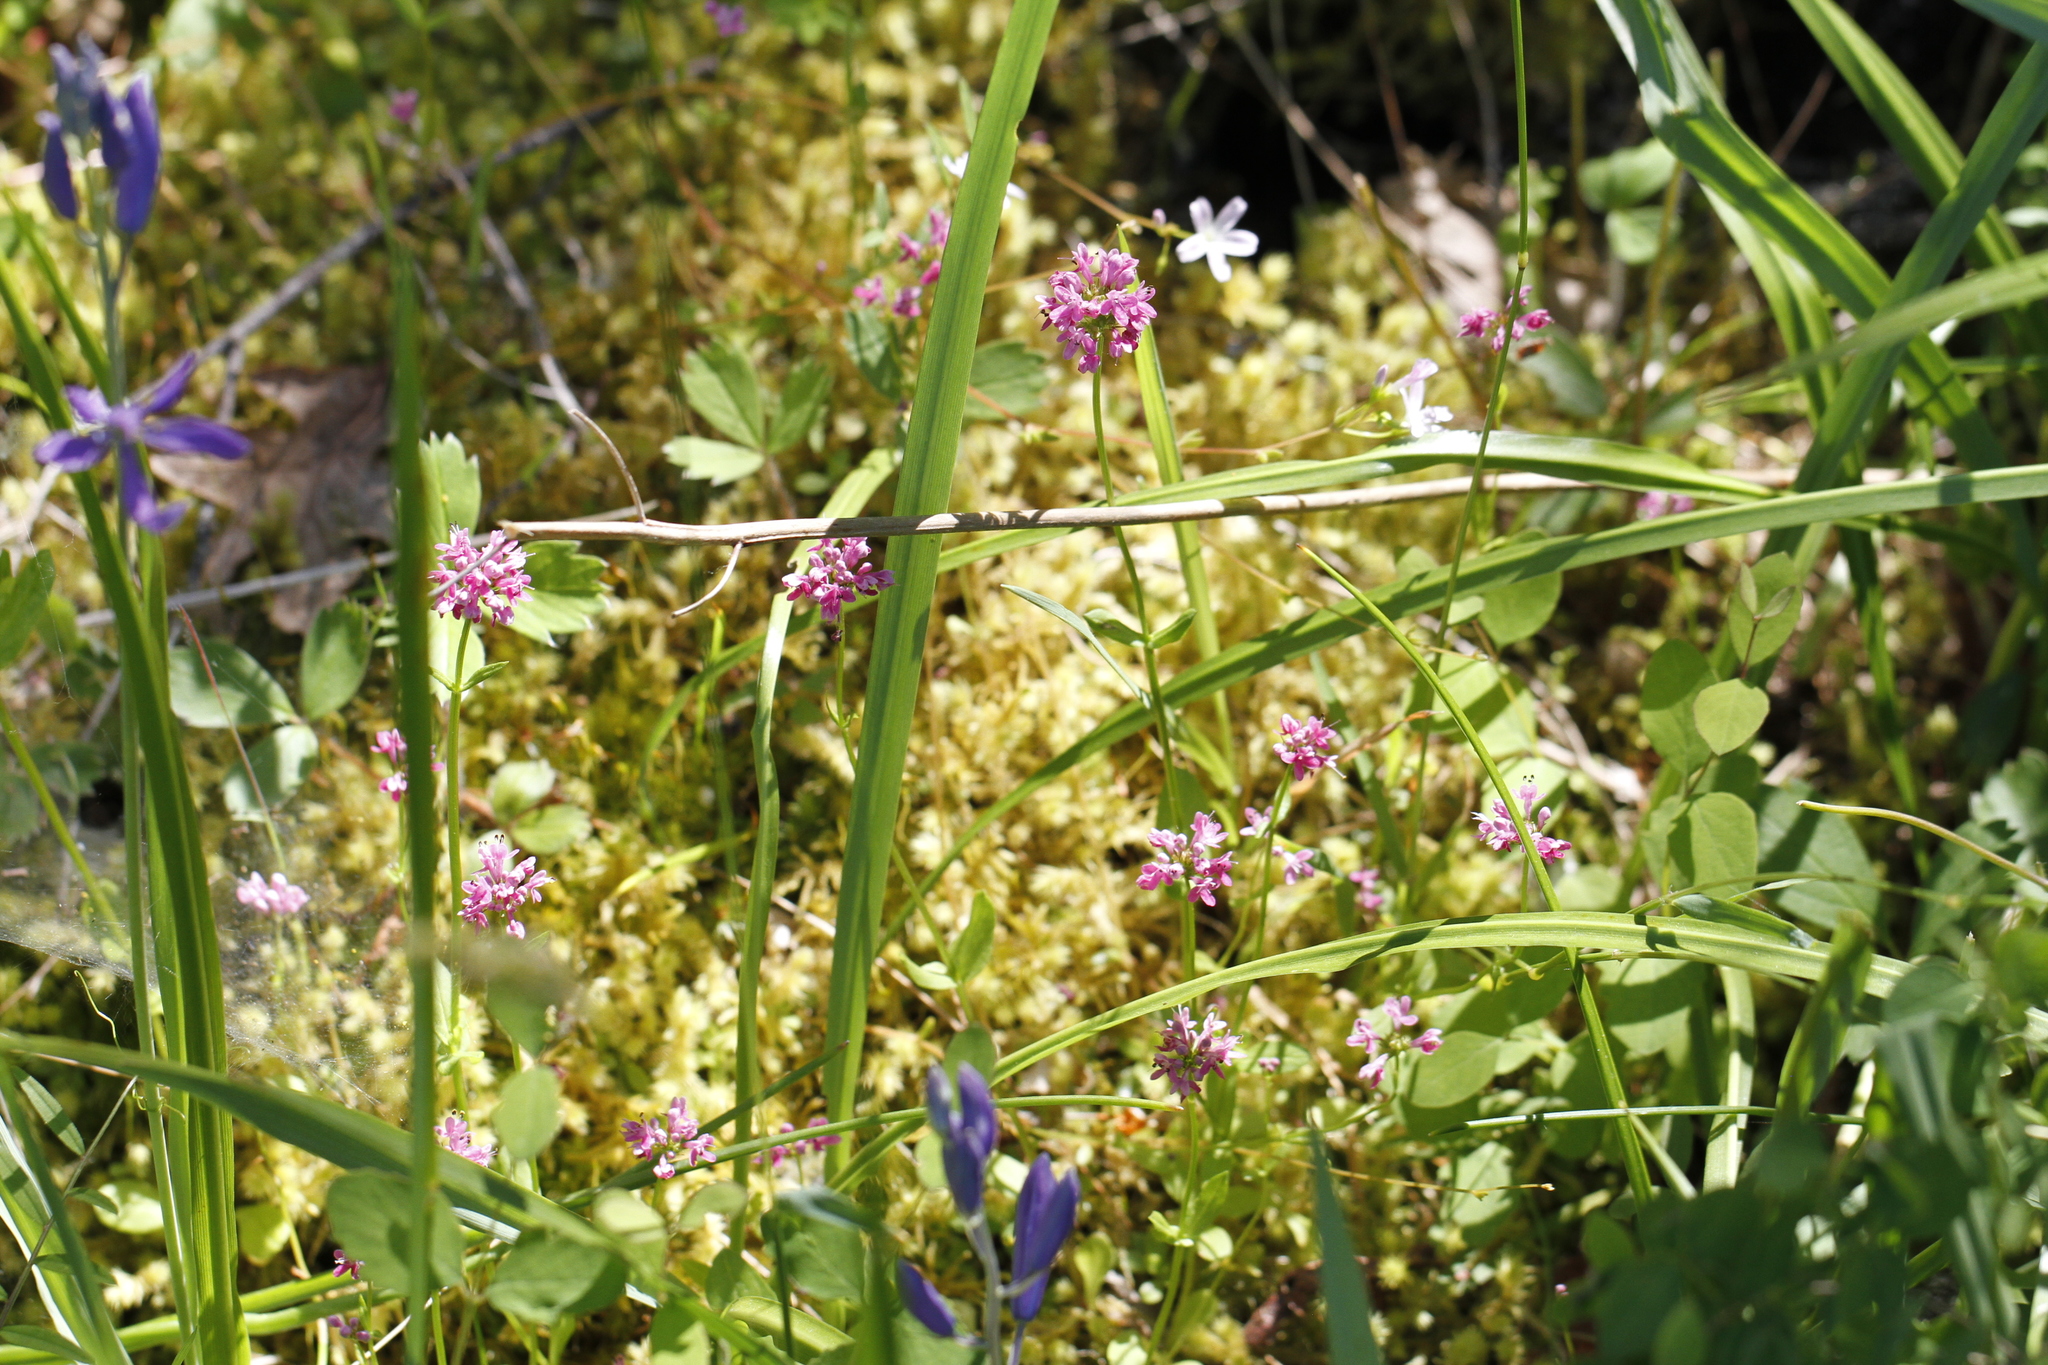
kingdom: Plantae
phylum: Tracheophyta
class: Magnoliopsida
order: Dipsacales
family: Caprifoliaceae
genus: Plectritis
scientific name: Plectritis congesta
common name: Pink plectritis
